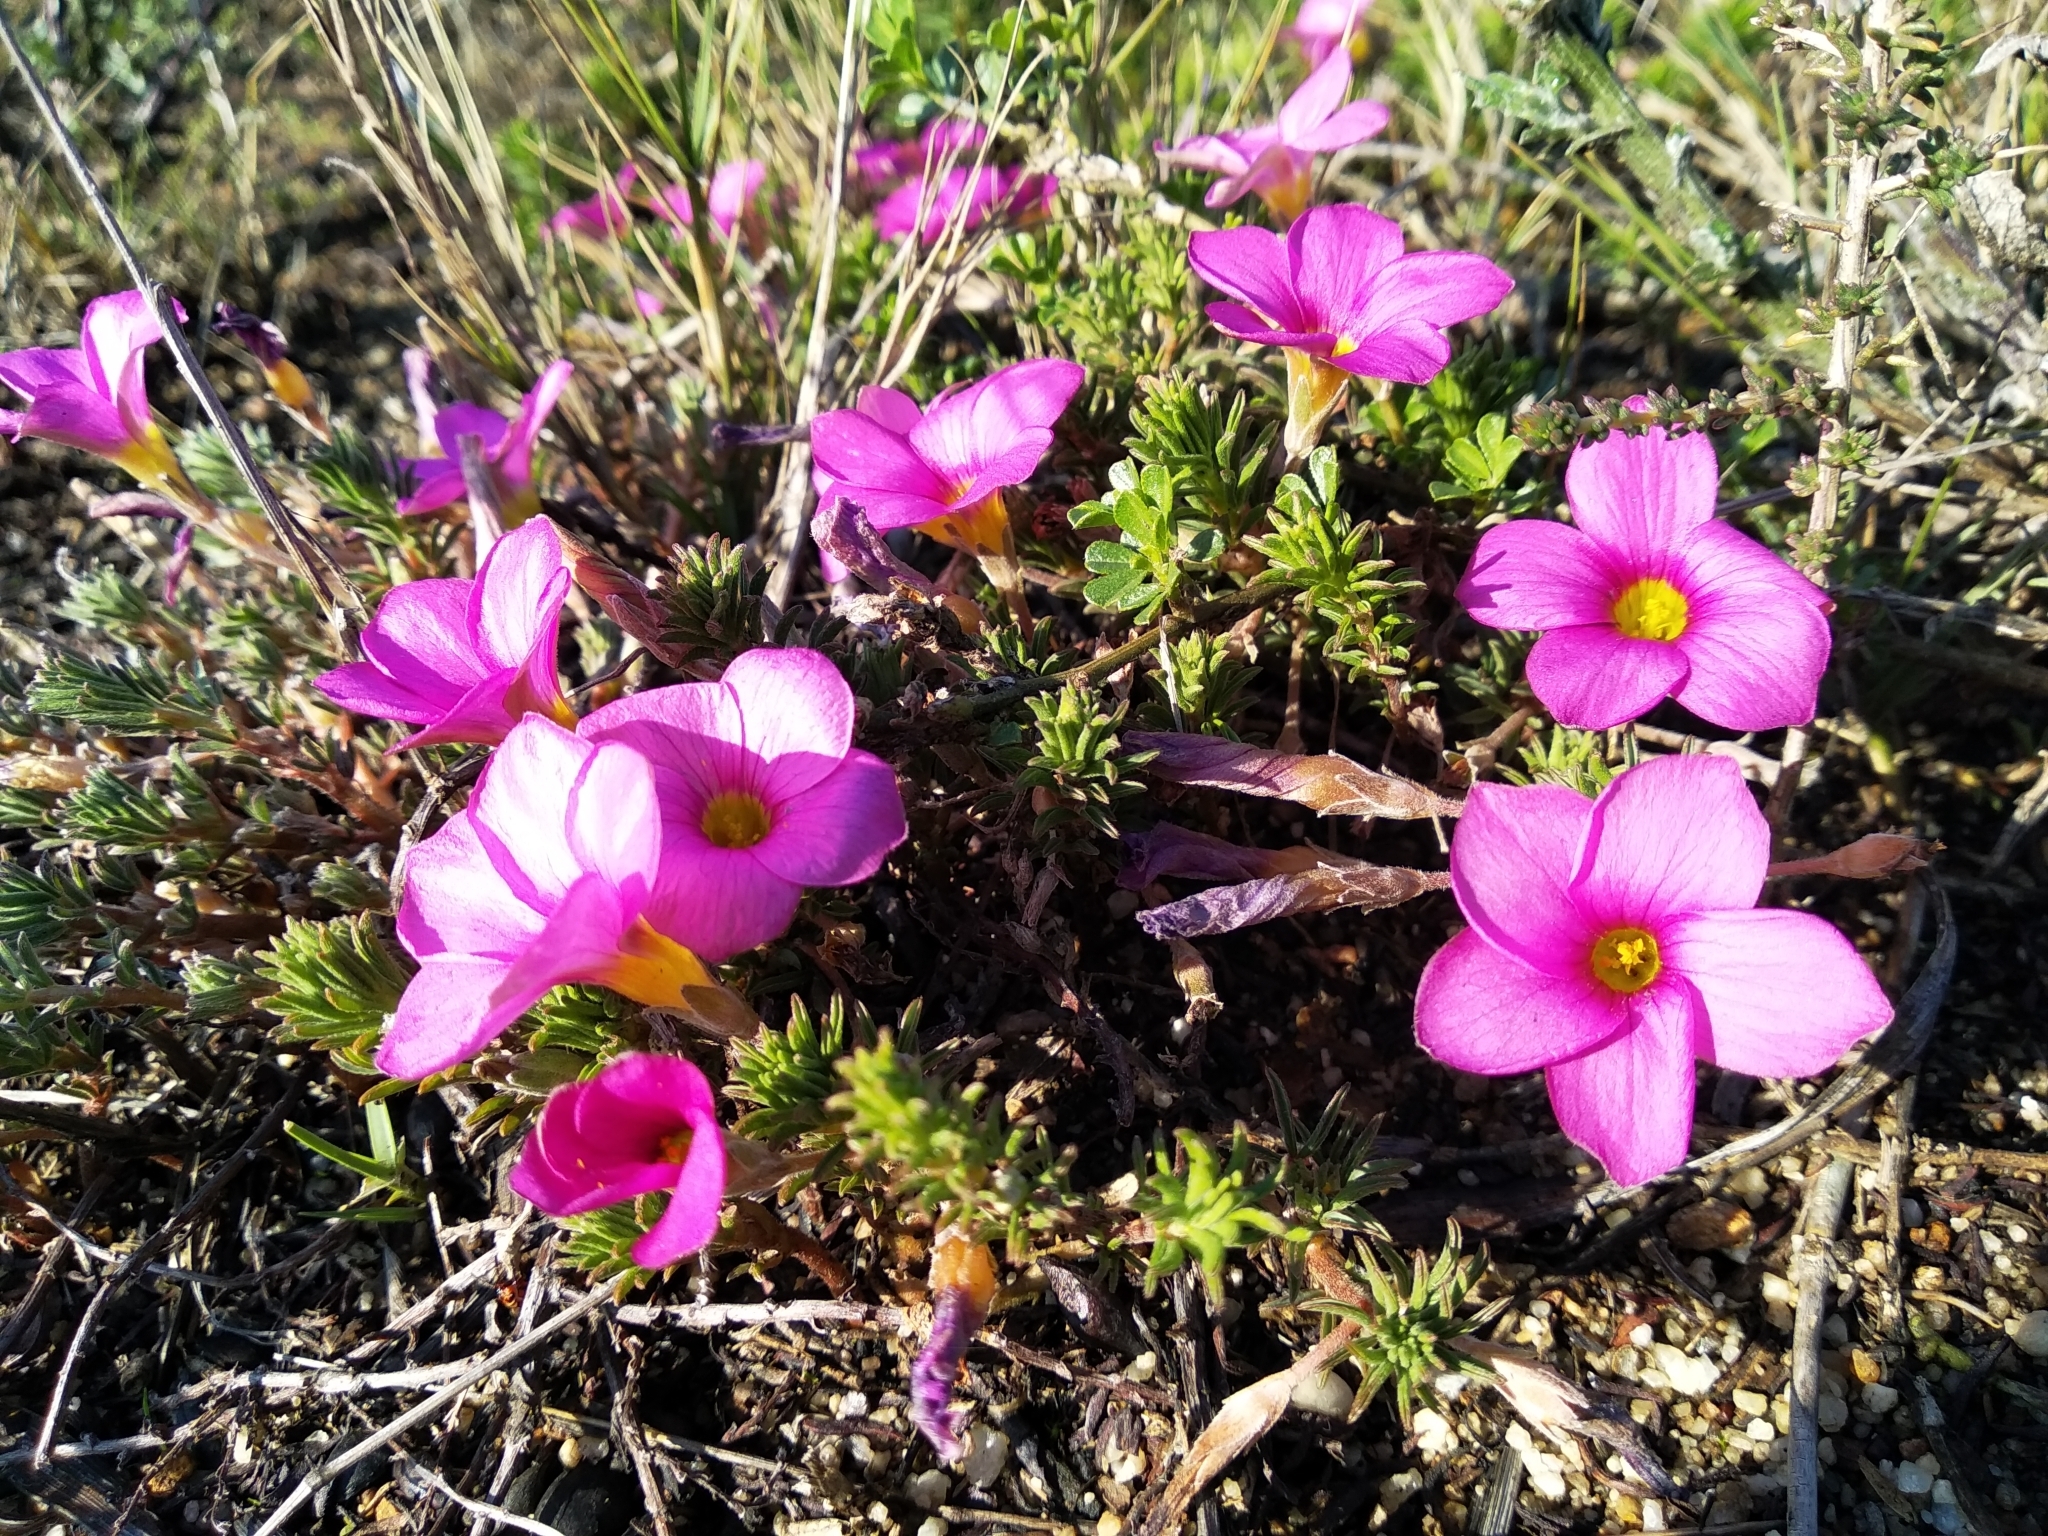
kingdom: Plantae
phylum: Tracheophyta
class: Magnoliopsida
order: Oxalidales
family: Oxalidaceae
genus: Oxalis
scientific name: Oxalis hirta
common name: Tropical woodsorrel
